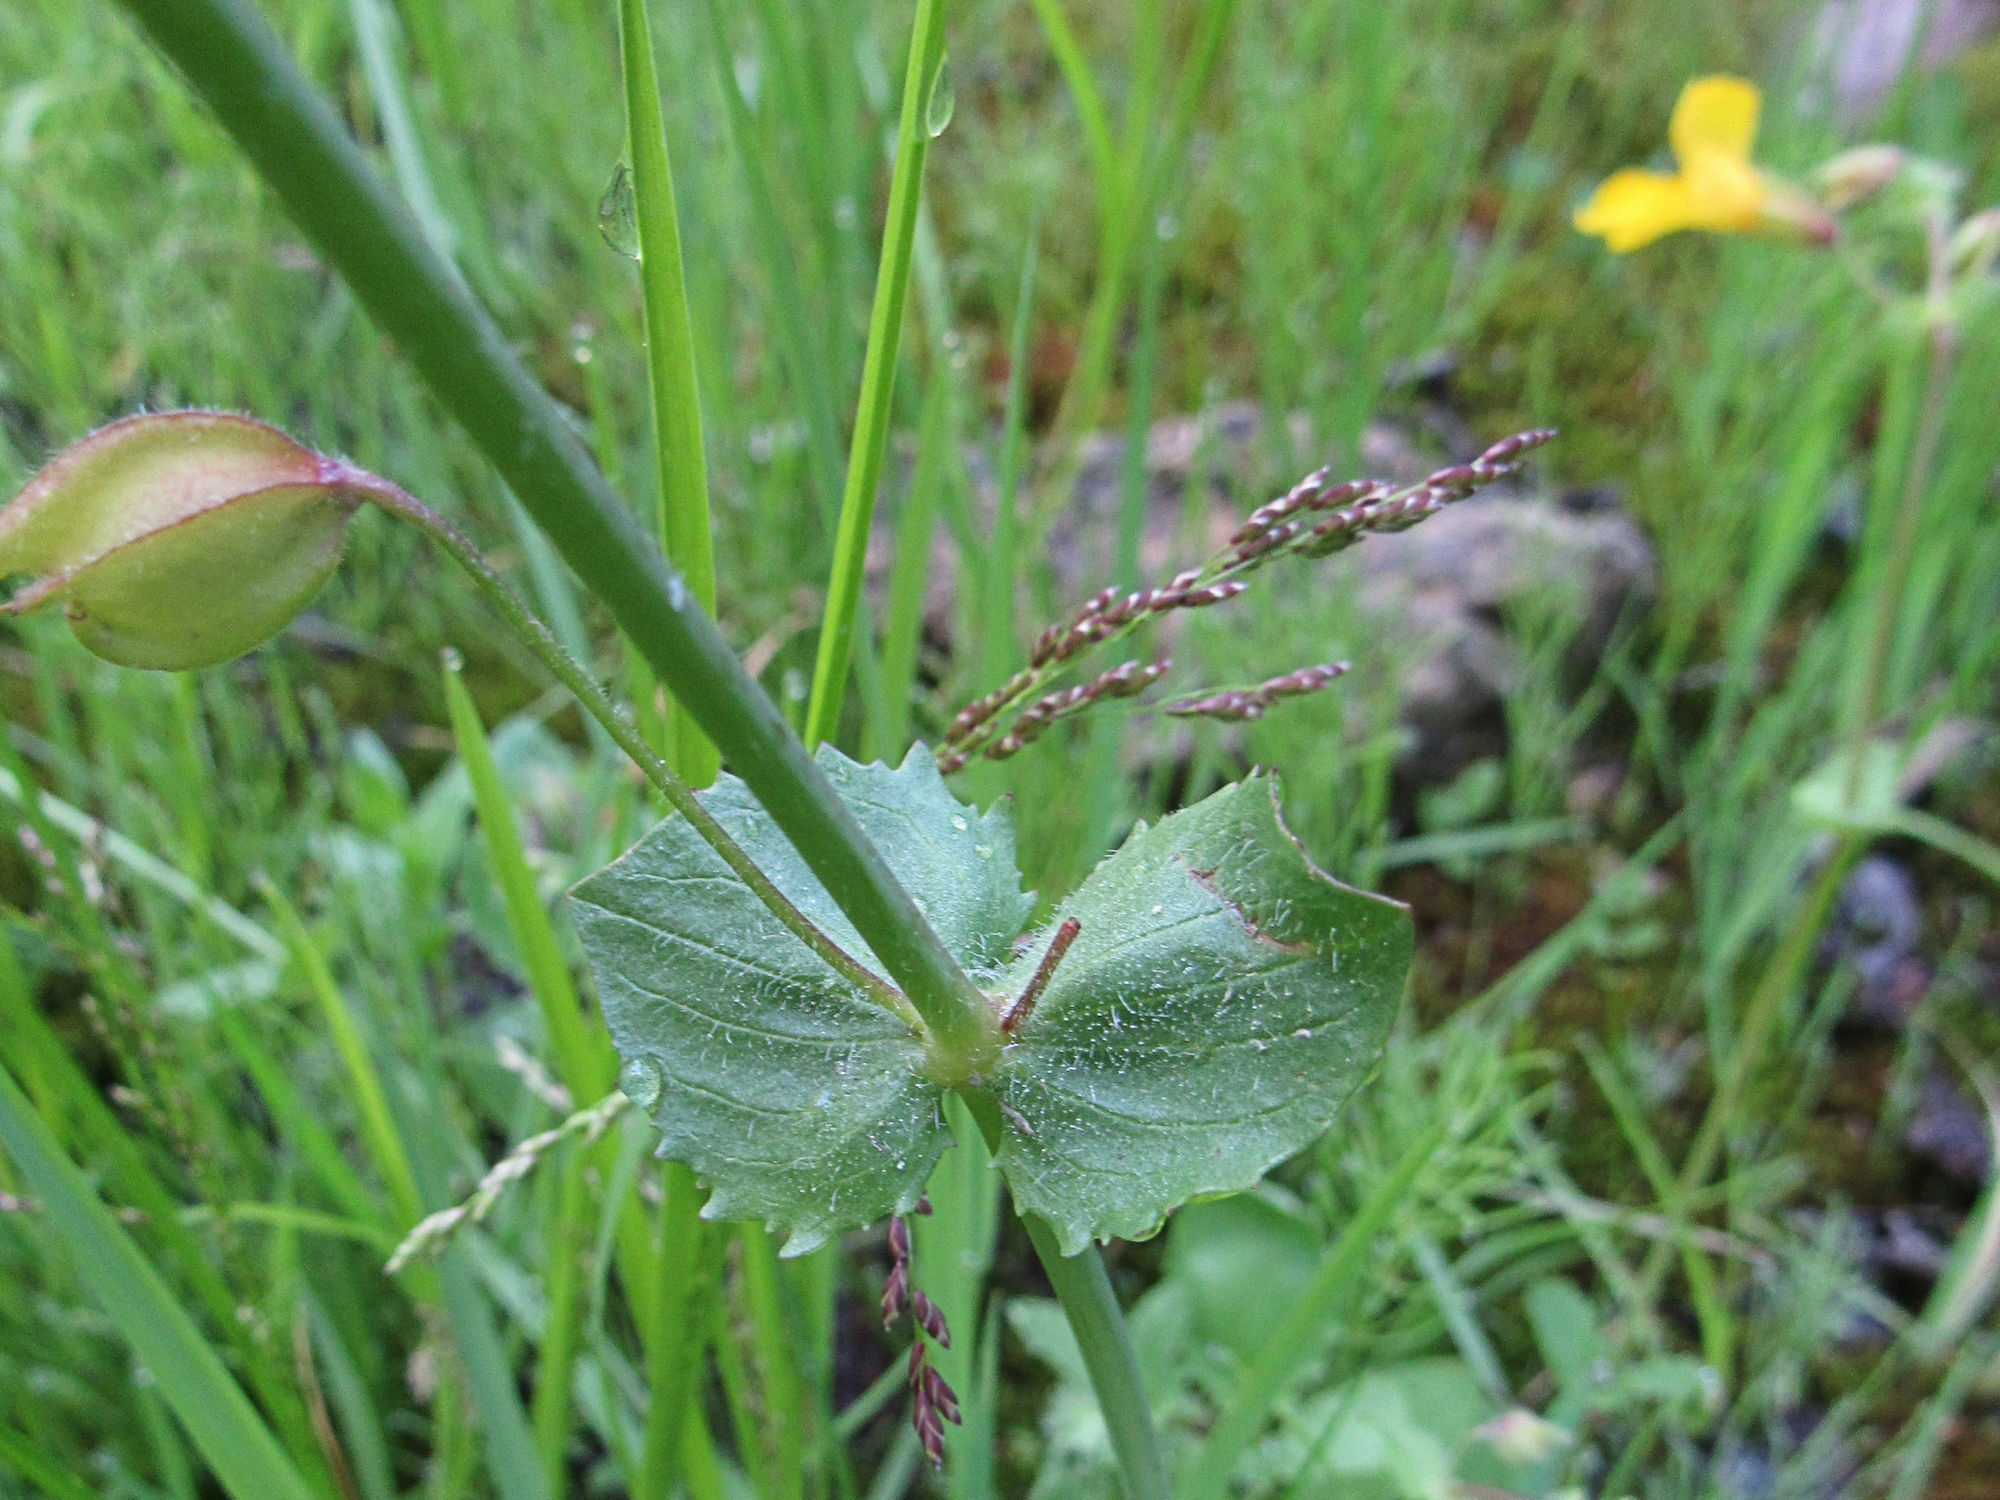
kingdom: Plantae
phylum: Tracheophyta
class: Magnoliopsida
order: Lamiales
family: Phrymaceae
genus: Erythranthe
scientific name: Erythranthe guttata
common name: Monkeyflower
